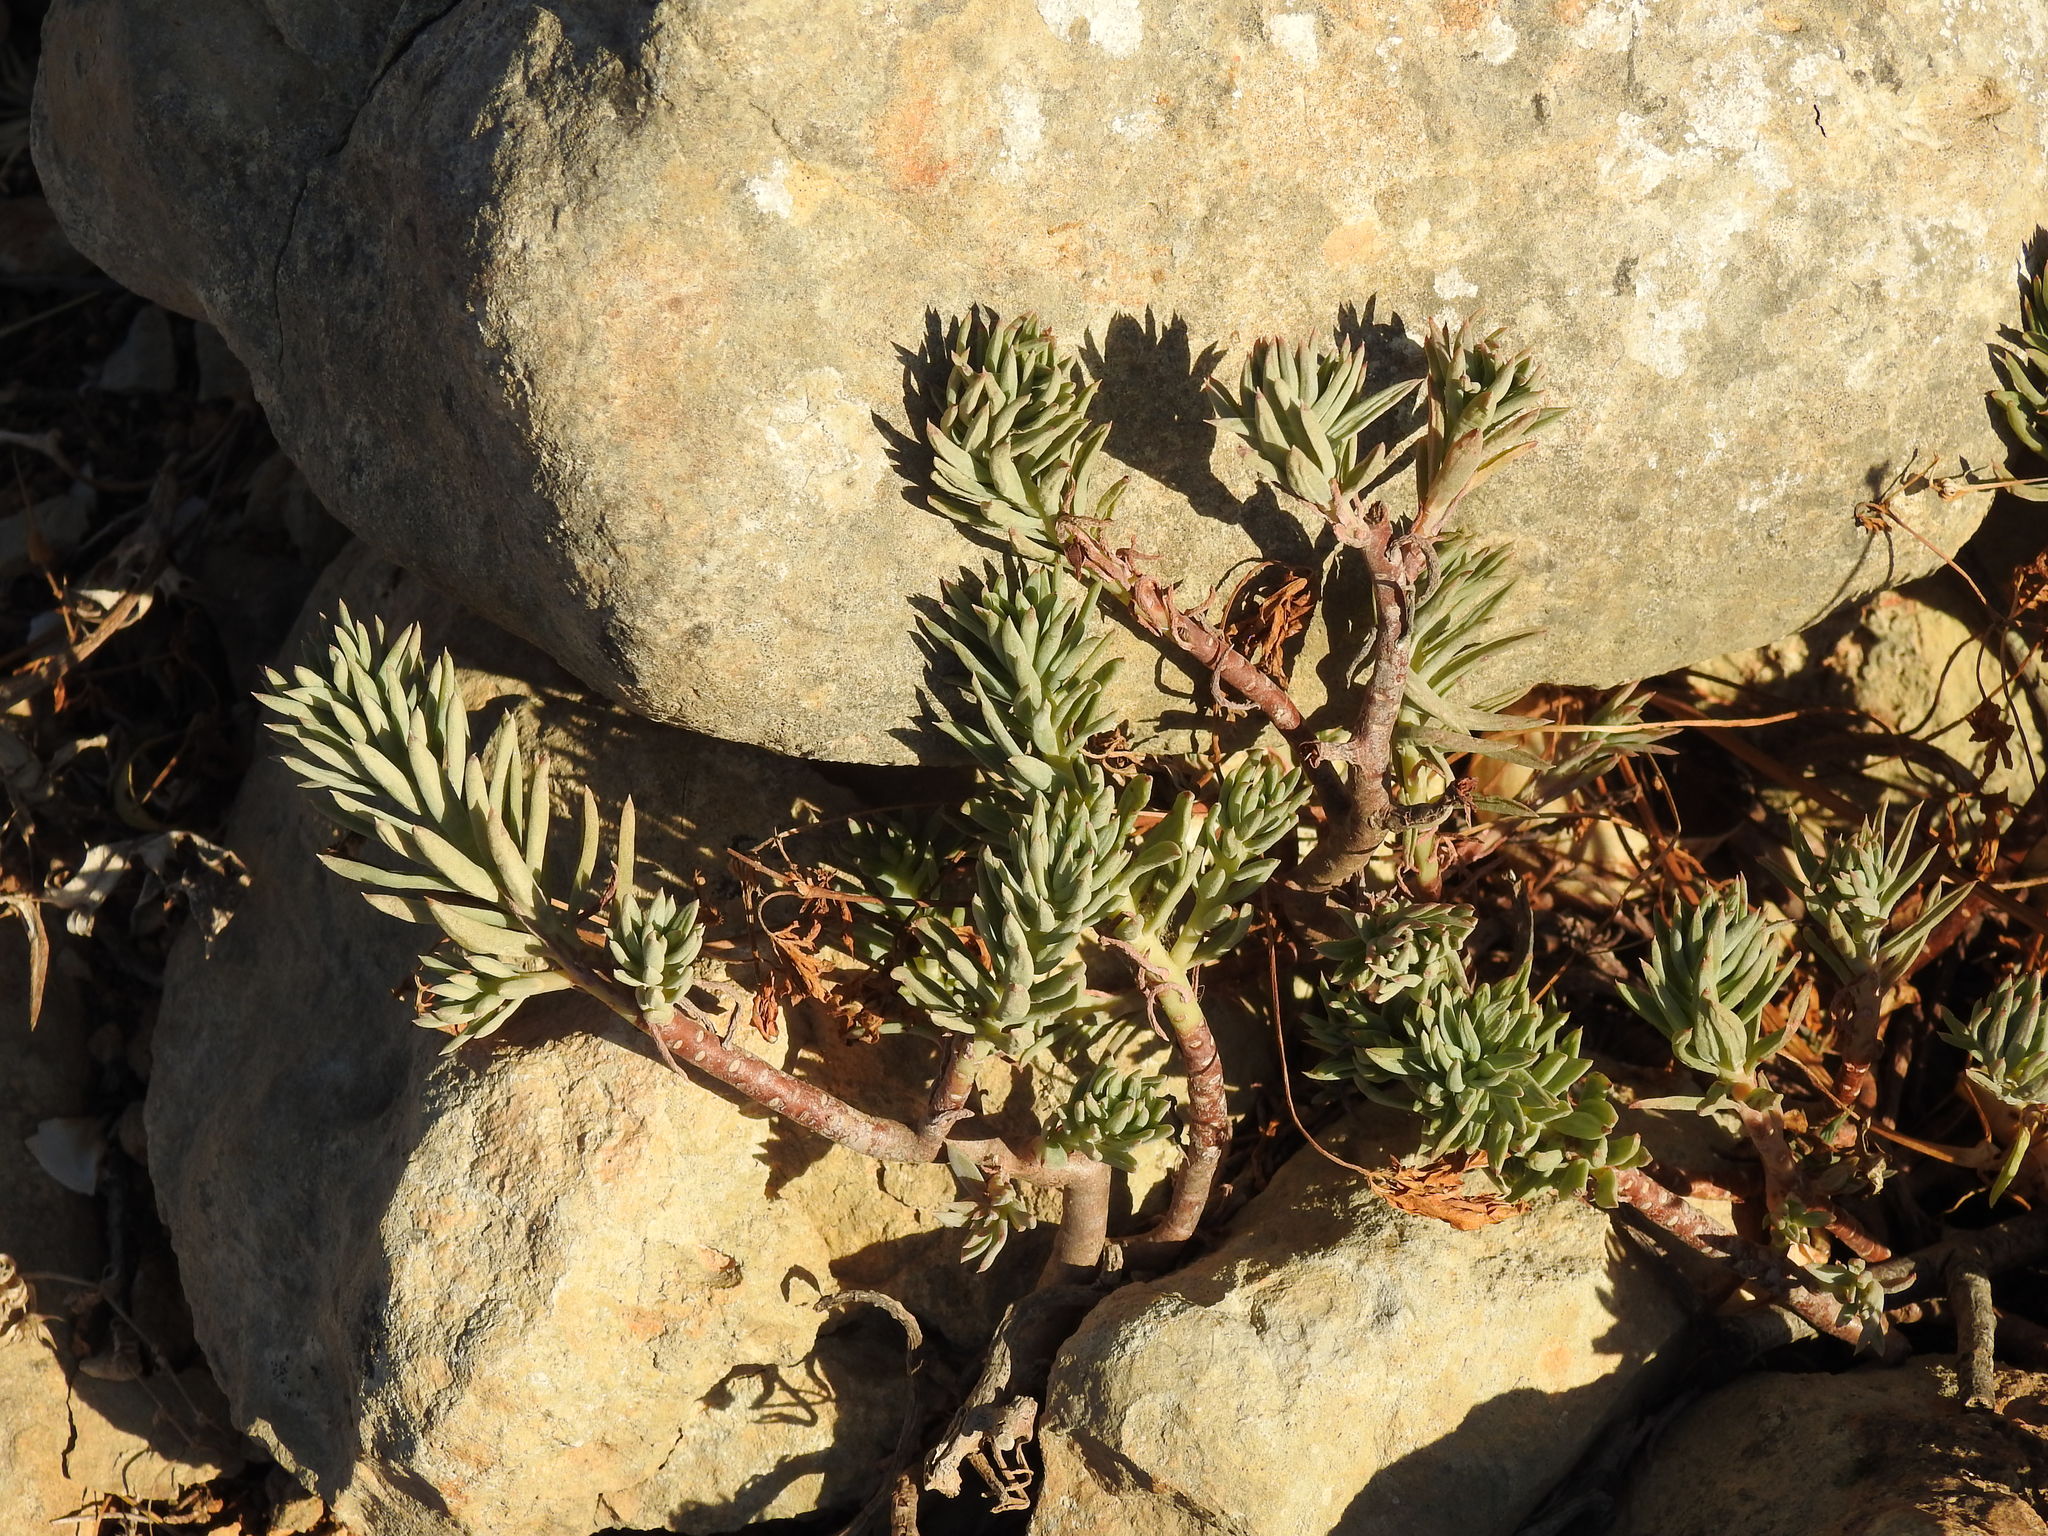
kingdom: Plantae
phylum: Tracheophyta
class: Magnoliopsida
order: Saxifragales
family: Crassulaceae
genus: Petrosedum
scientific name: Petrosedum sediforme
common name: Pale stonecrop
